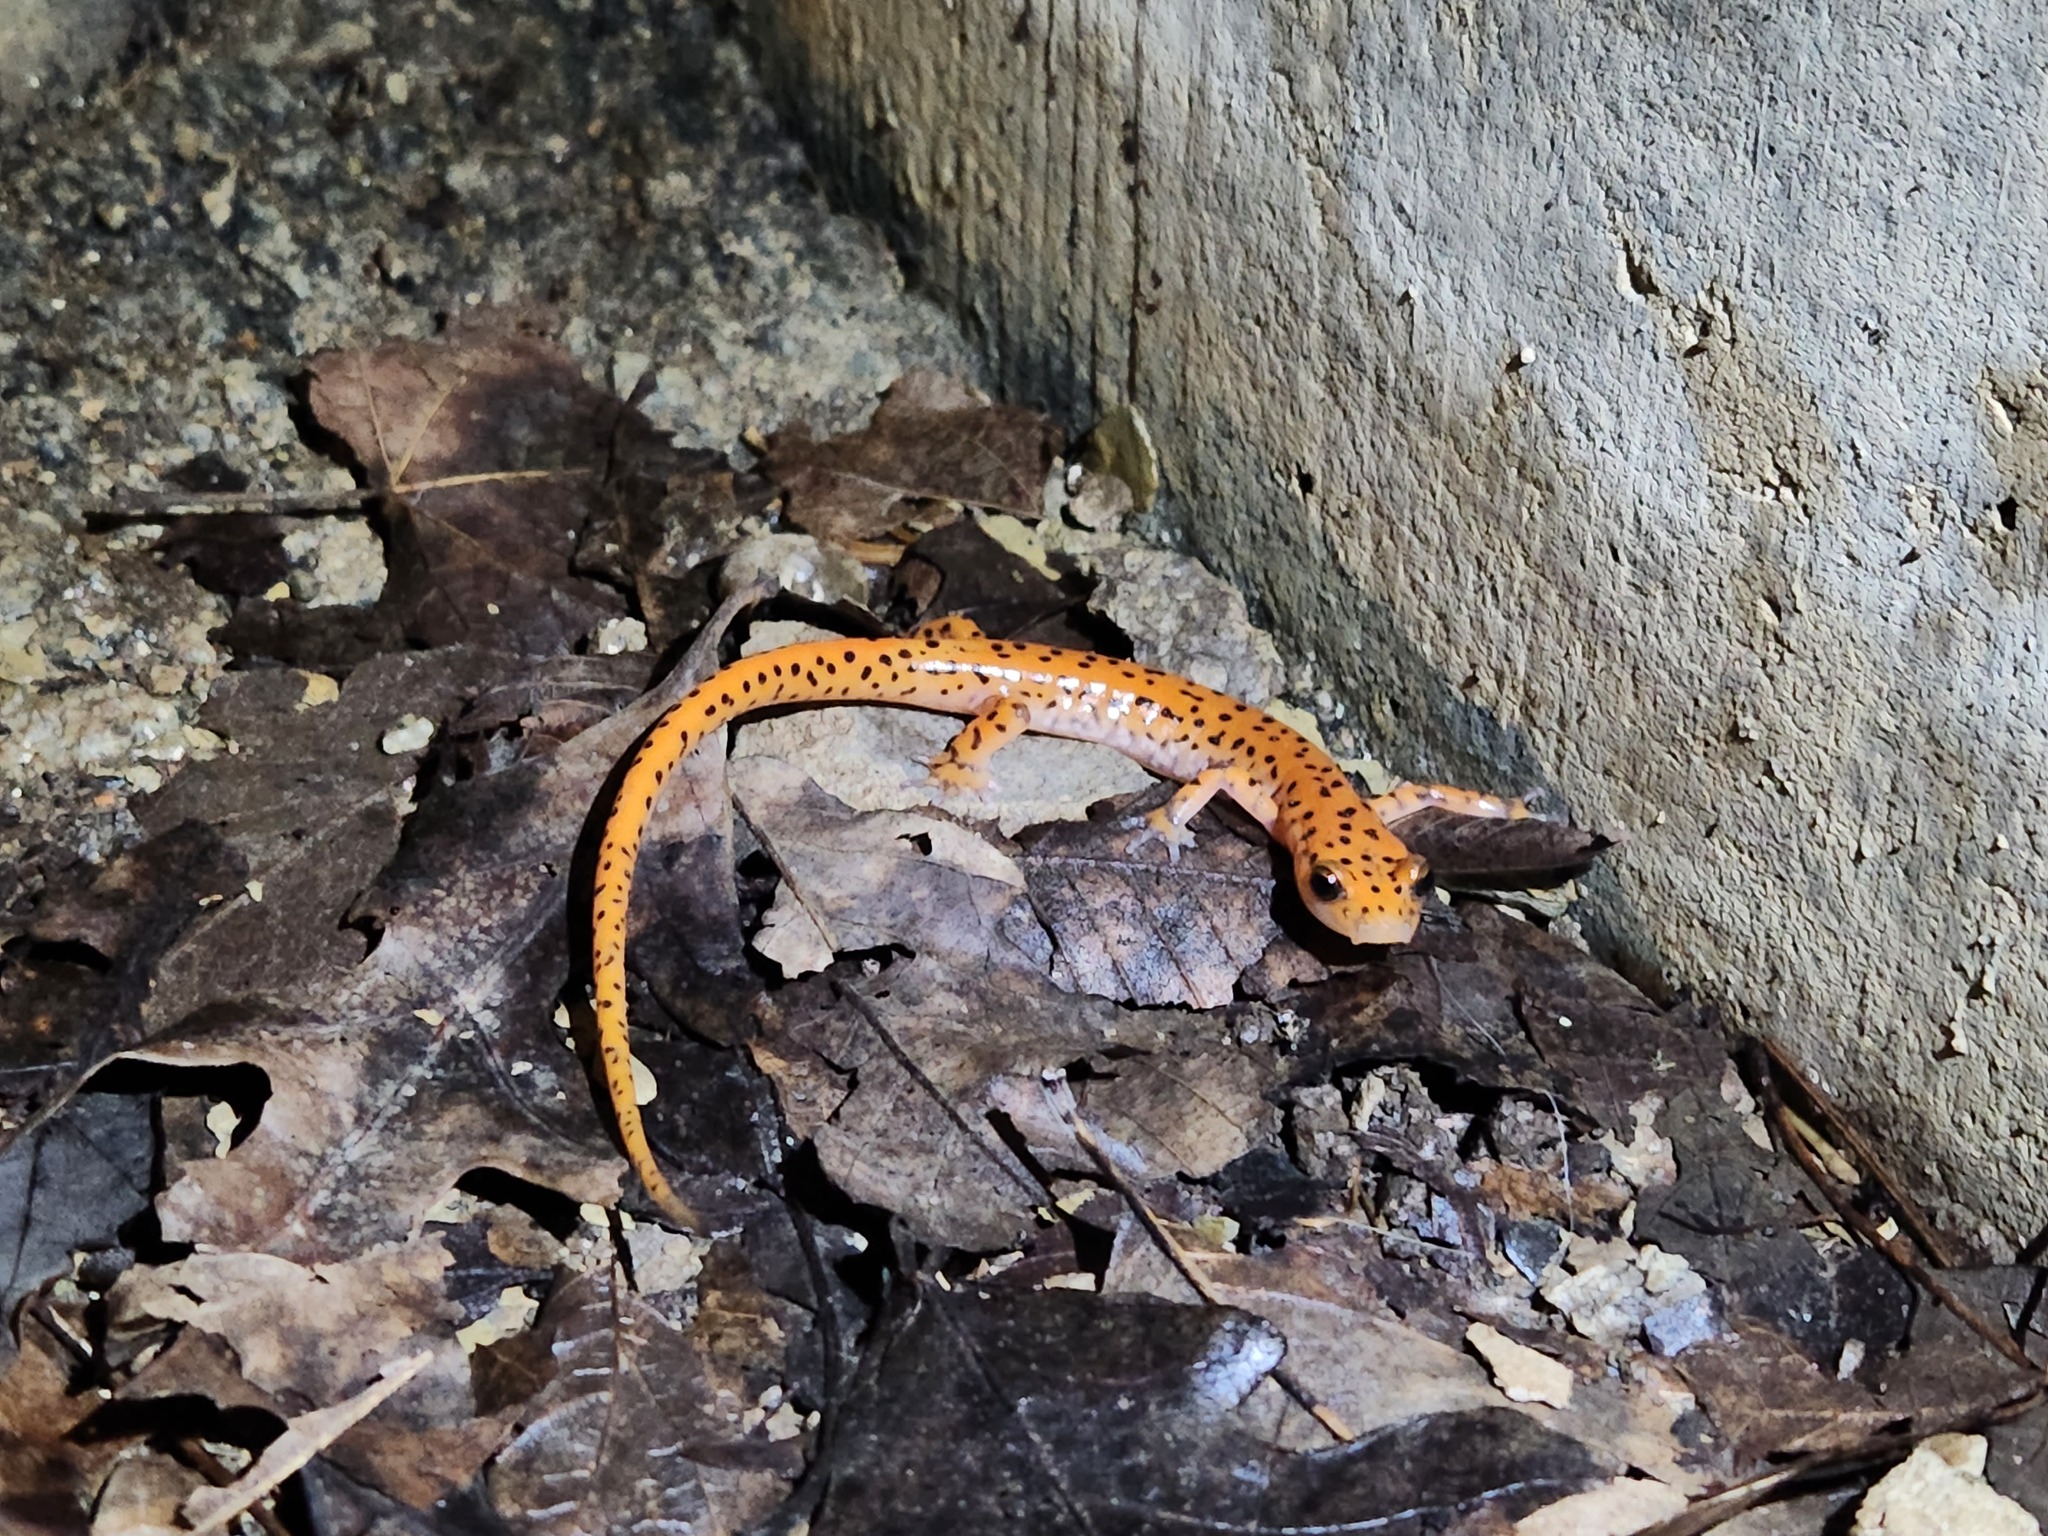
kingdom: Animalia
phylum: Chordata
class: Amphibia
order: Caudata
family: Plethodontidae
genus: Eurycea
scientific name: Eurycea lucifuga
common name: Cave salamander
